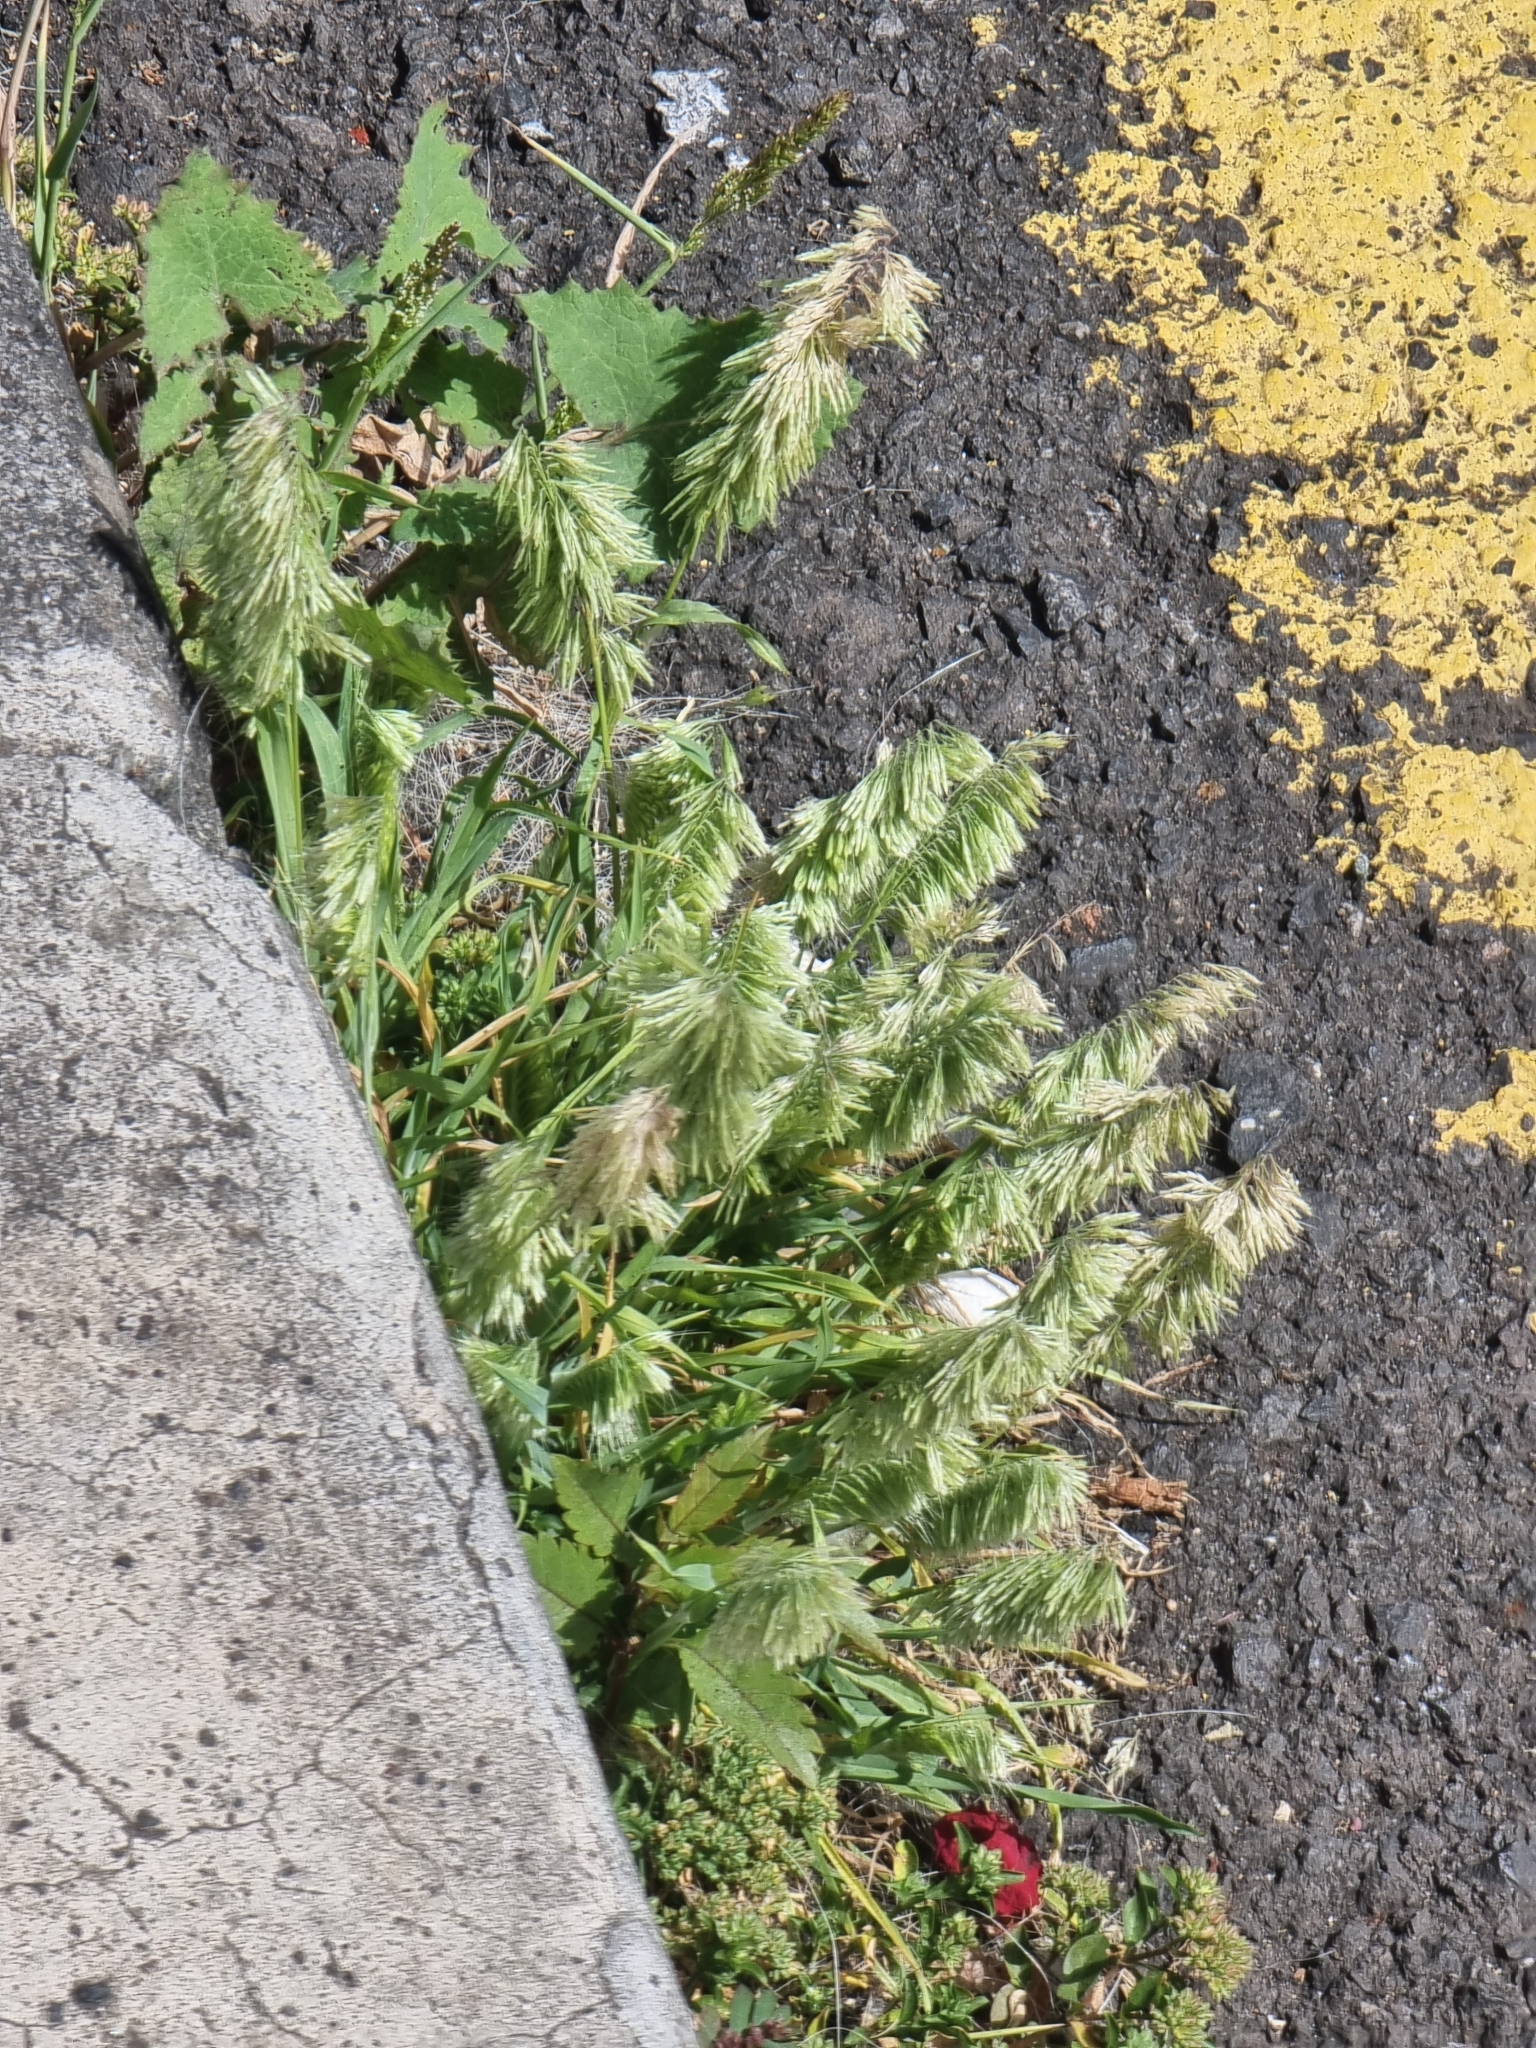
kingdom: Plantae
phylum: Tracheophyta
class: Liliopsida
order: Poales
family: Poaceae
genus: Lamarckia
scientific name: Lamarckia aurea
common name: Golden dog's-tail
